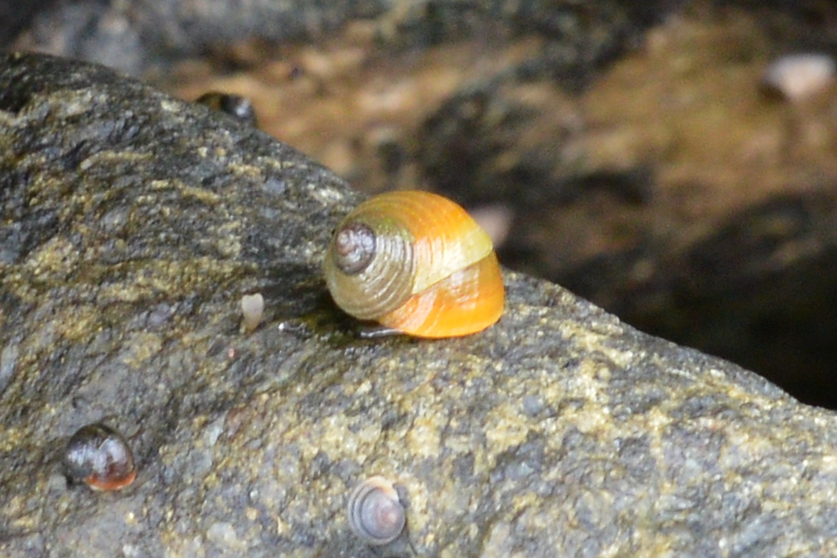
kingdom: Animalia
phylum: Mollusca
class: Gastropoda
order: Littorinimorpha
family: Littorinidae
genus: Littorina
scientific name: Littorina saxatilis
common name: Black-lined periwinkle
